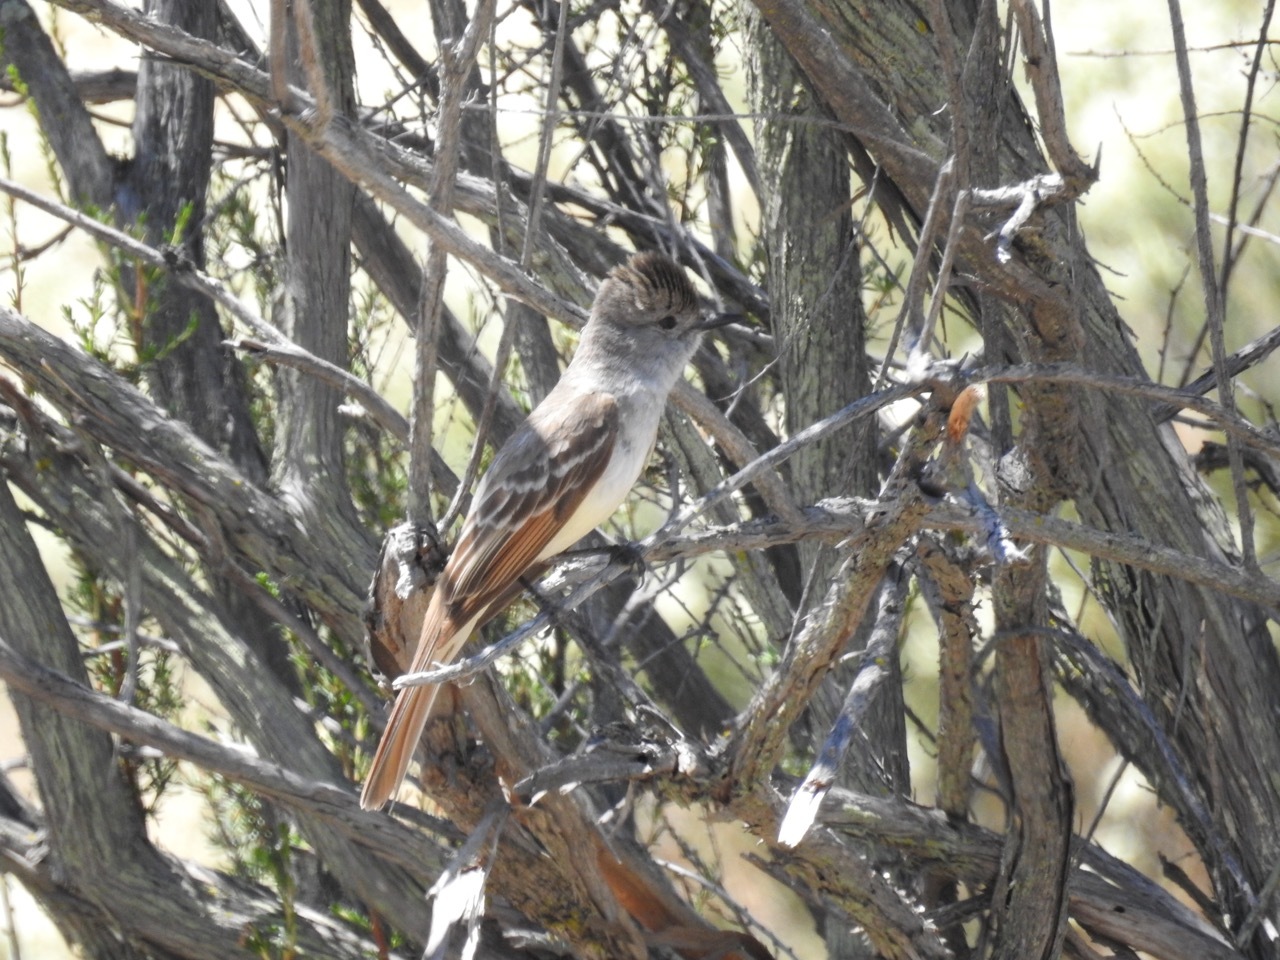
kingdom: Animalia
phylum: Chordata
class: Aves
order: Passeriformes
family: Tyrannidae
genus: Myiarchus
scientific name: Myiarchus cinerascens
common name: Ash-throated flycatcher
